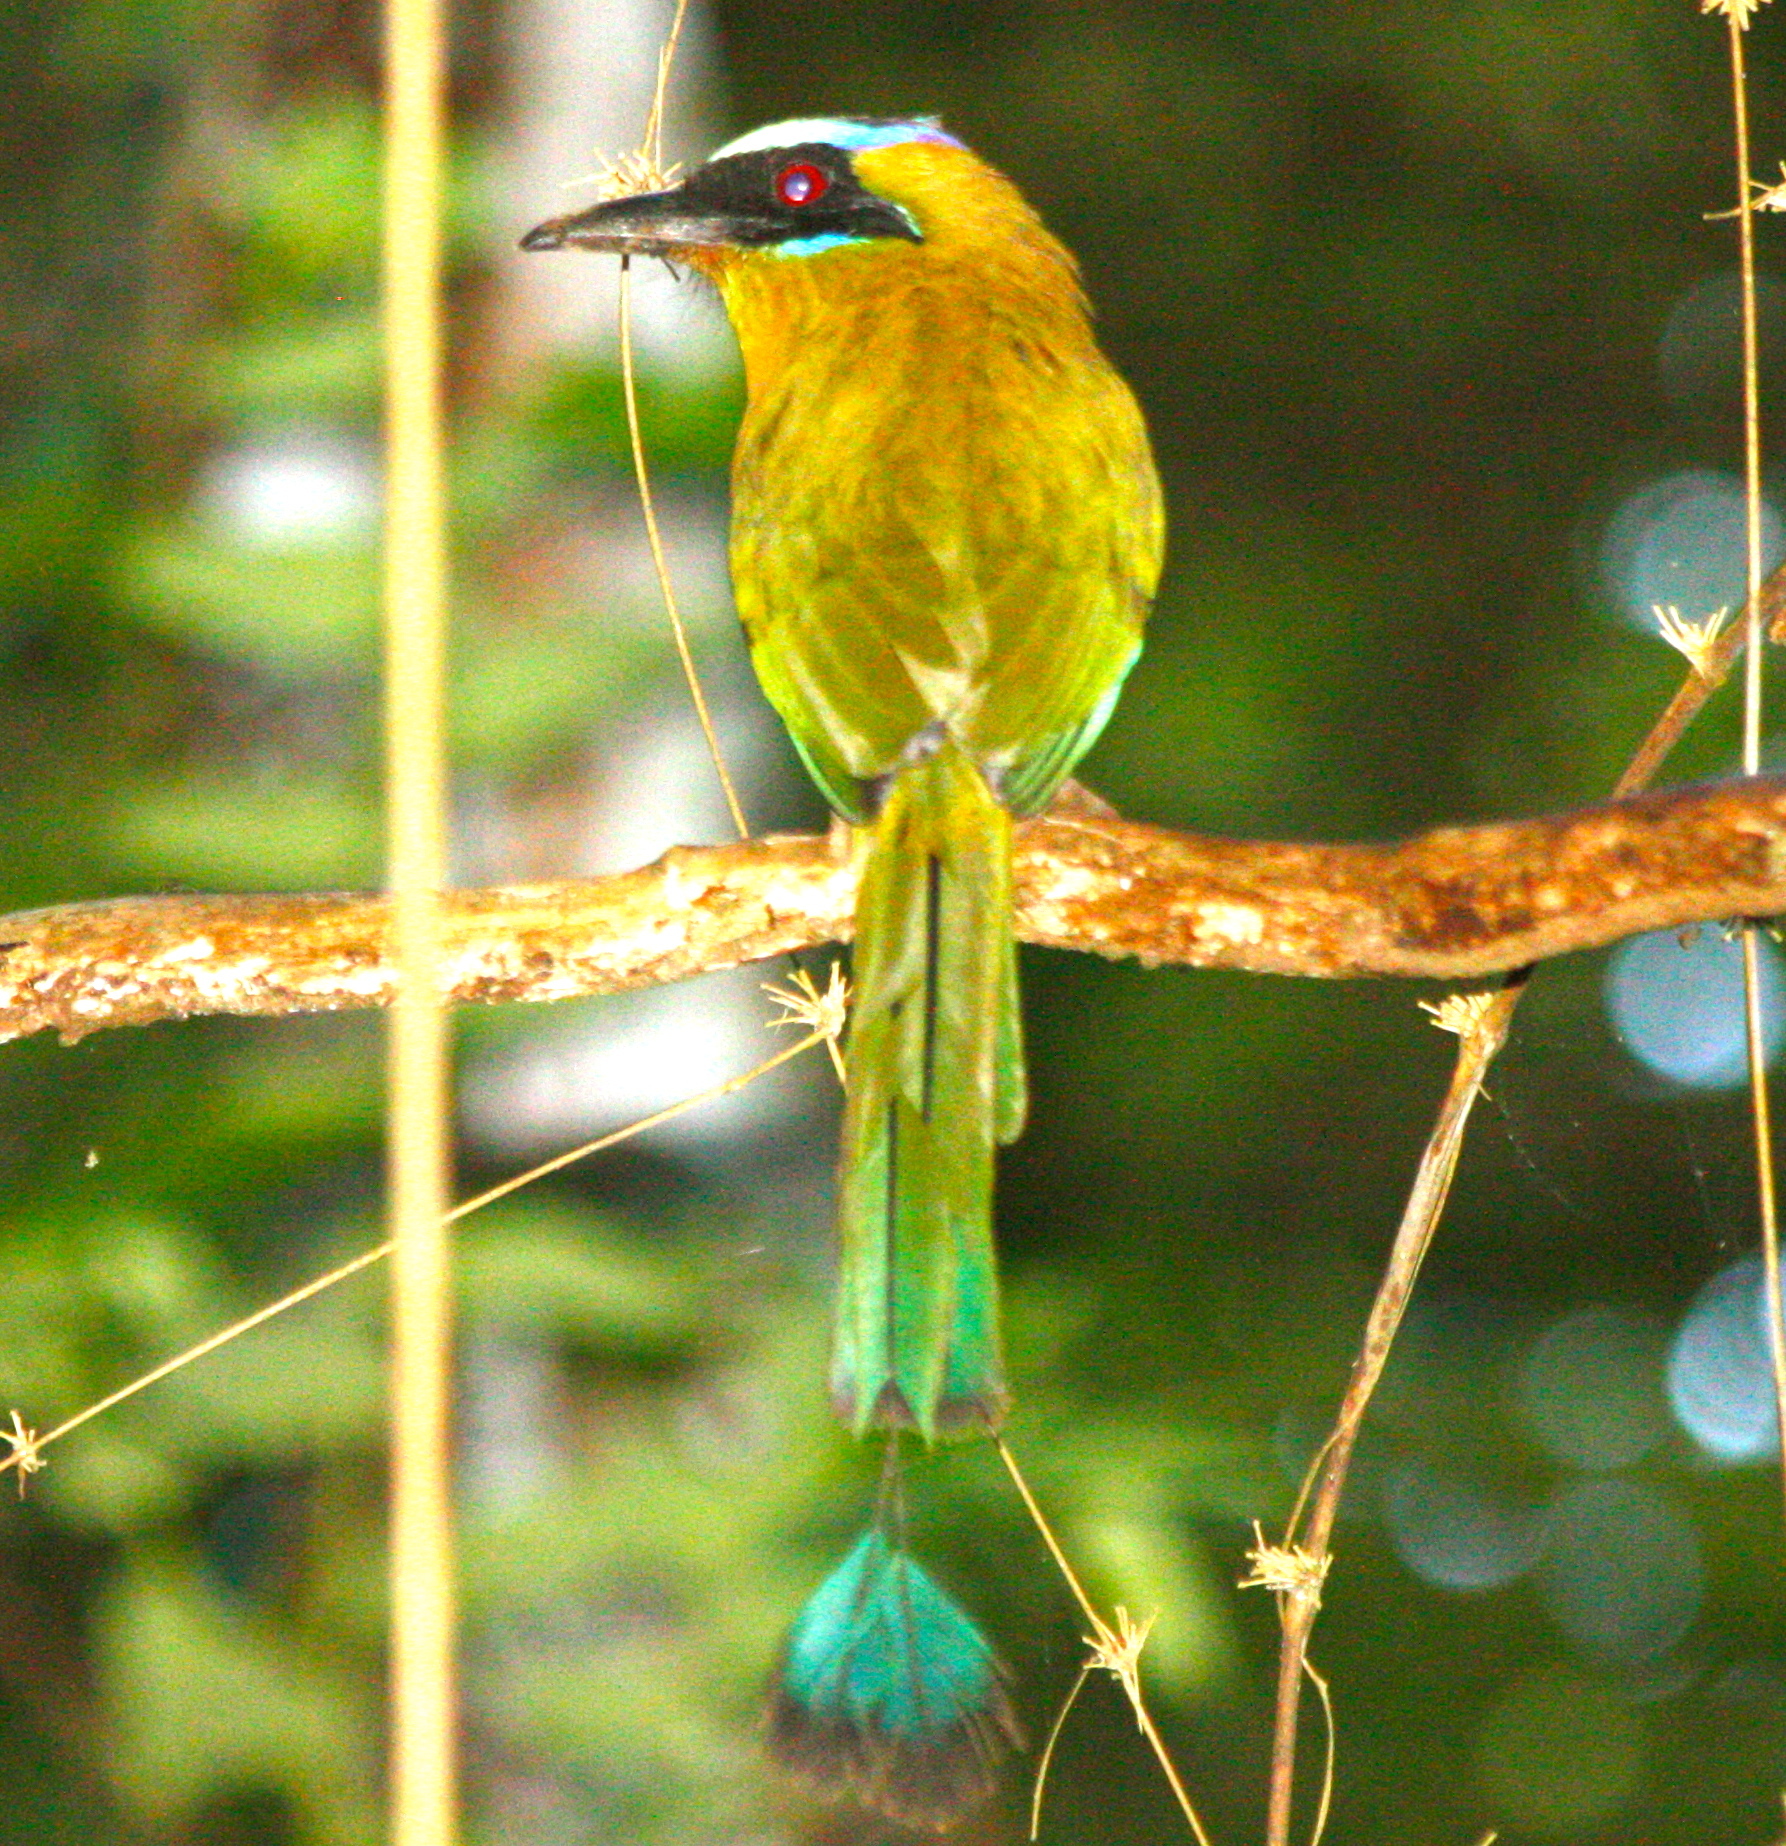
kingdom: Animalia
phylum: Chordata
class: Aves
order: Coraciiformes
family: Momotidae
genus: Momotus
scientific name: Momotus subrufescens
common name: Whooping motmot
